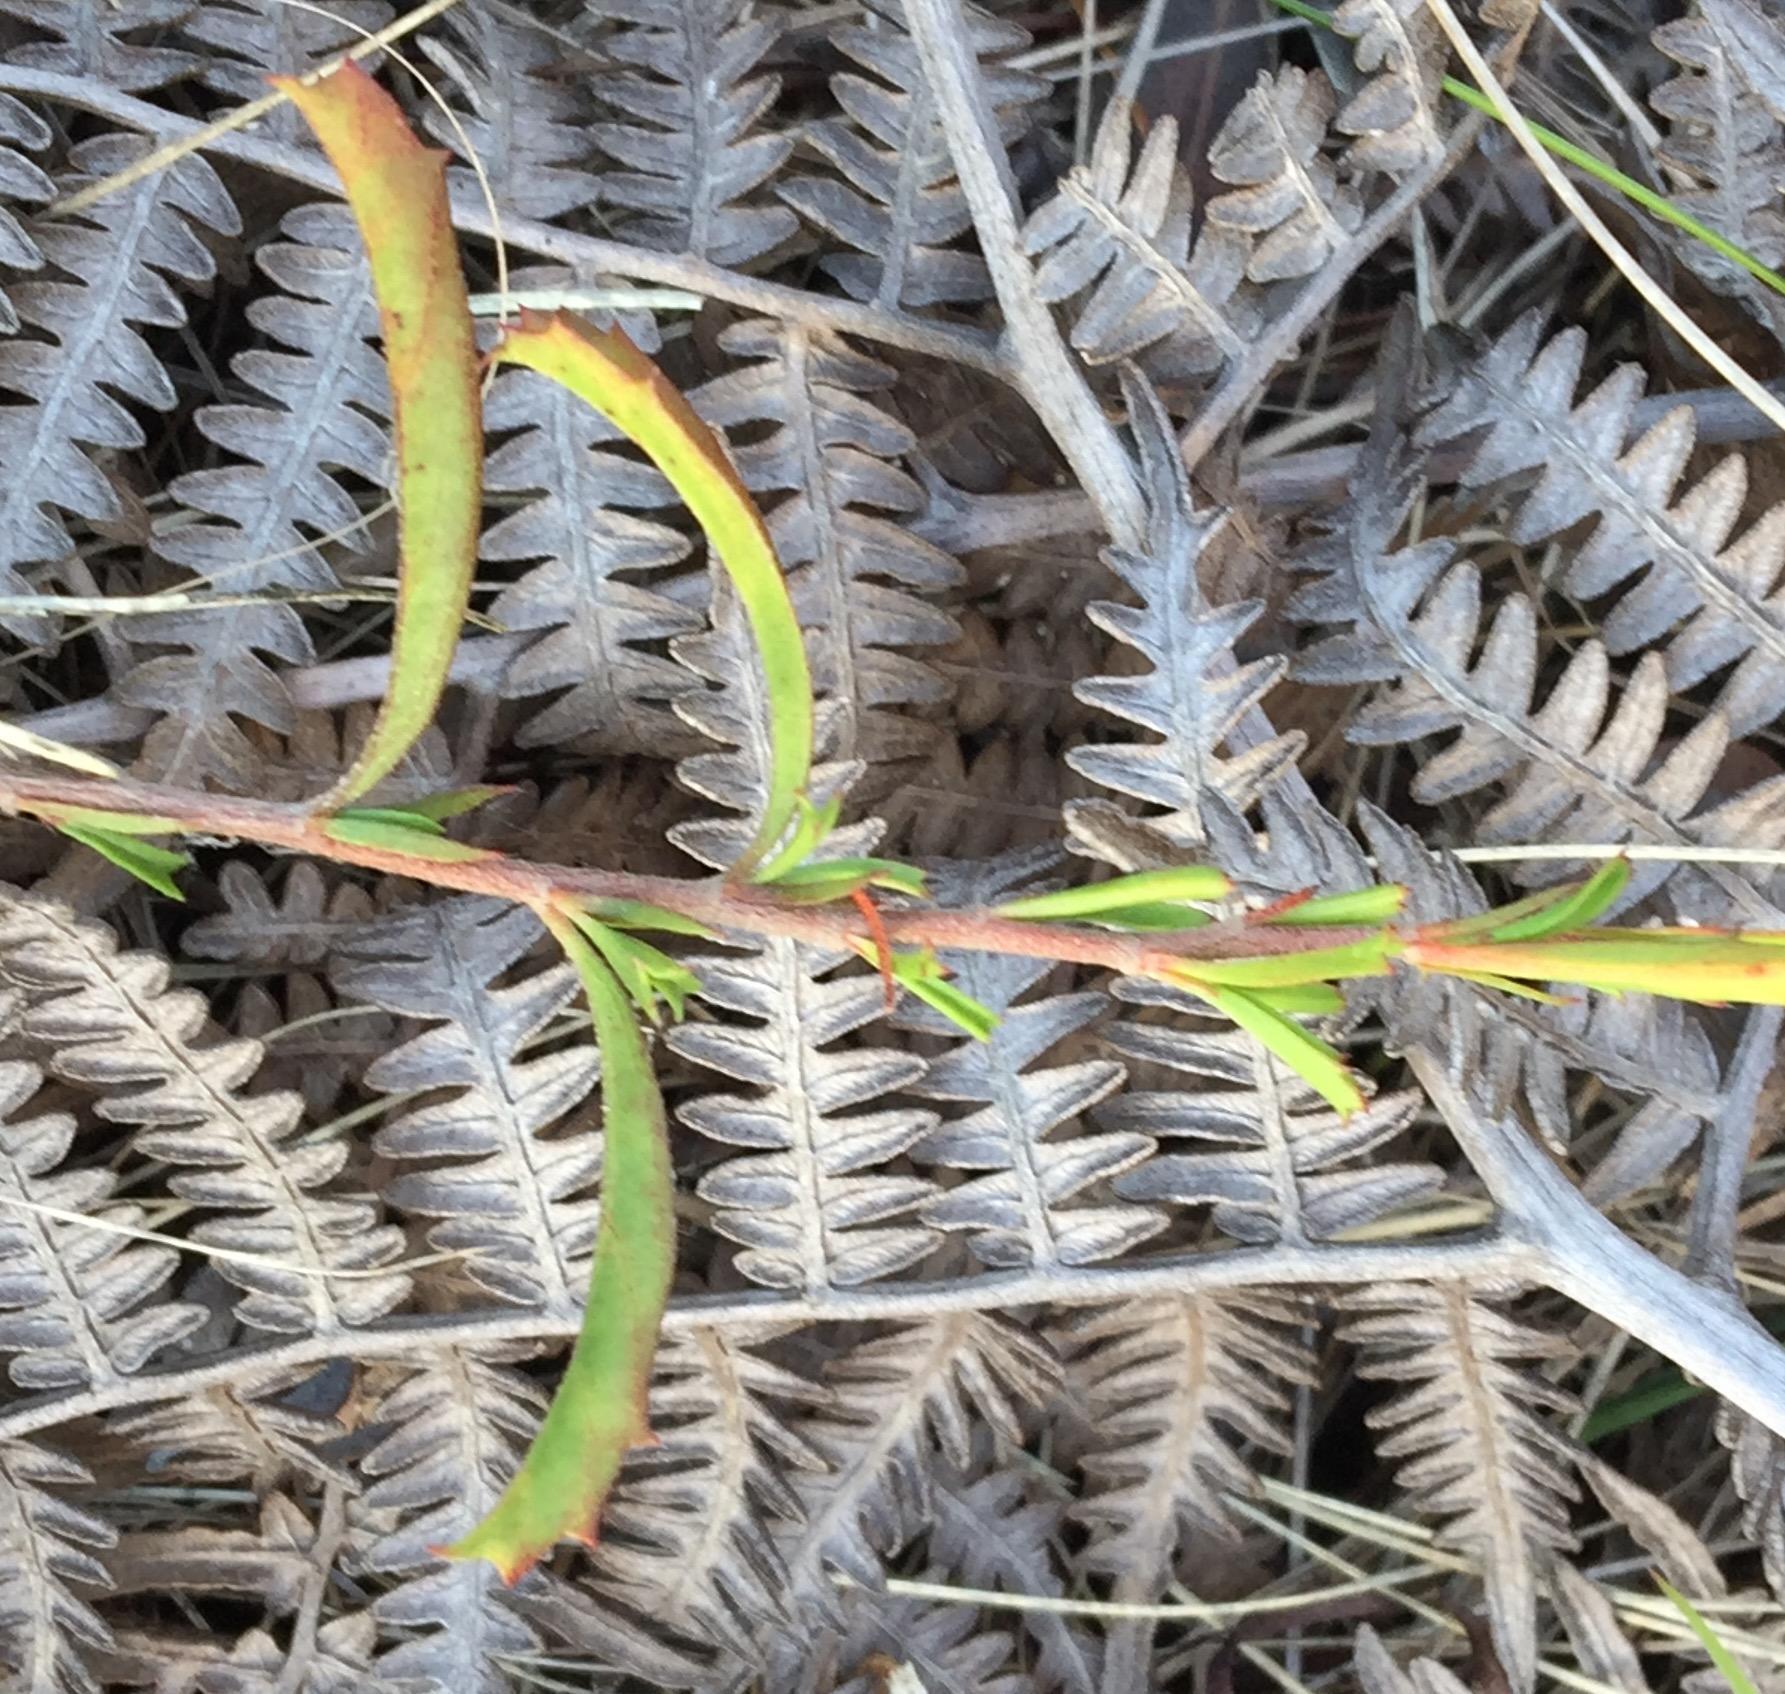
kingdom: Plantae
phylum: Tracheophyta
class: Magnoliopsida
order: Malvales
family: Malvaceae
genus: Hermannia
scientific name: Hermannia flammea
